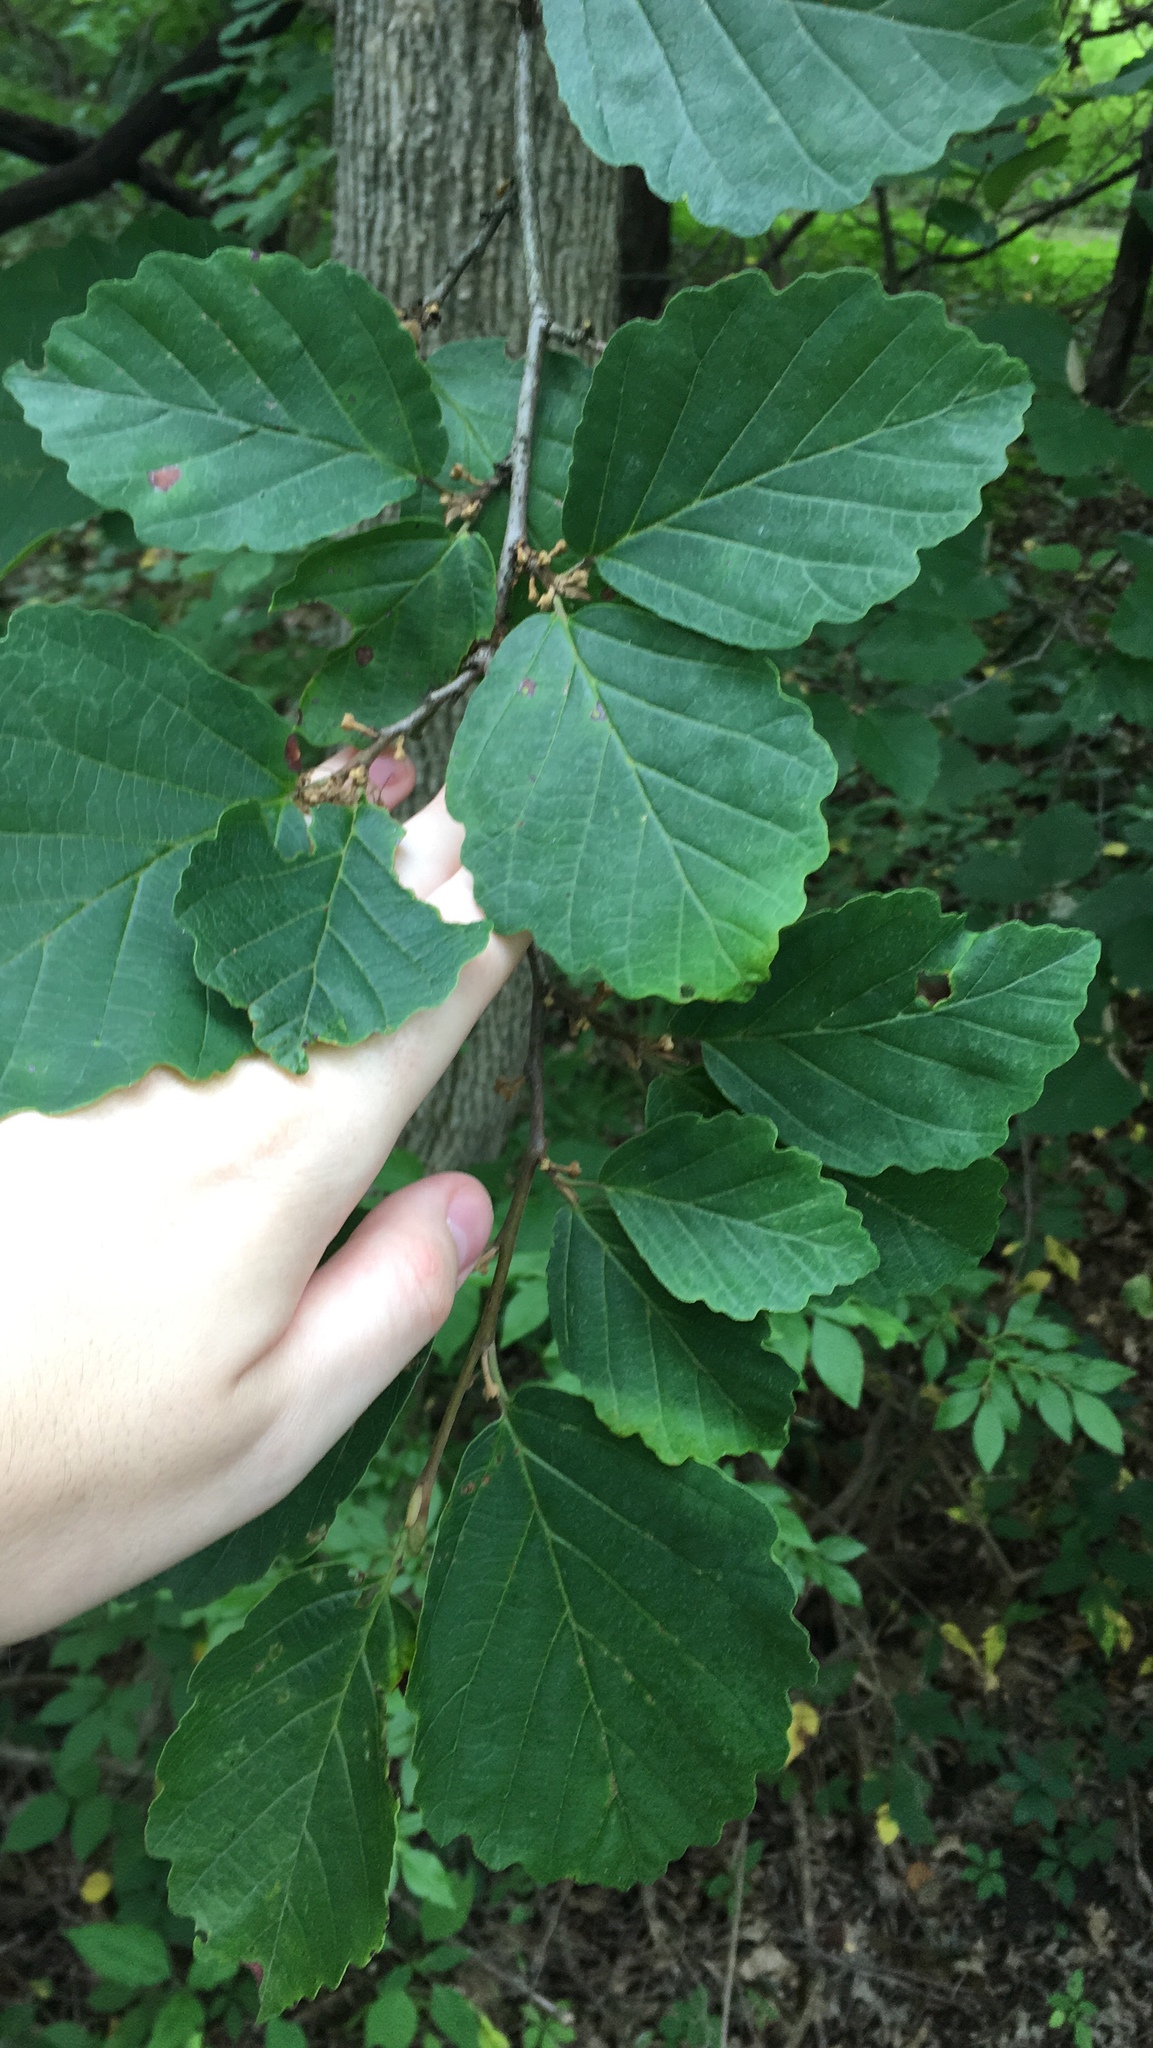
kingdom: Plantae
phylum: Tracheophyta
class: Magnoliopsida
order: Saxifragales
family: Hamamelidaceae
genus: Hamamelis
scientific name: Hamamelis virginiana
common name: Witch-hazel
